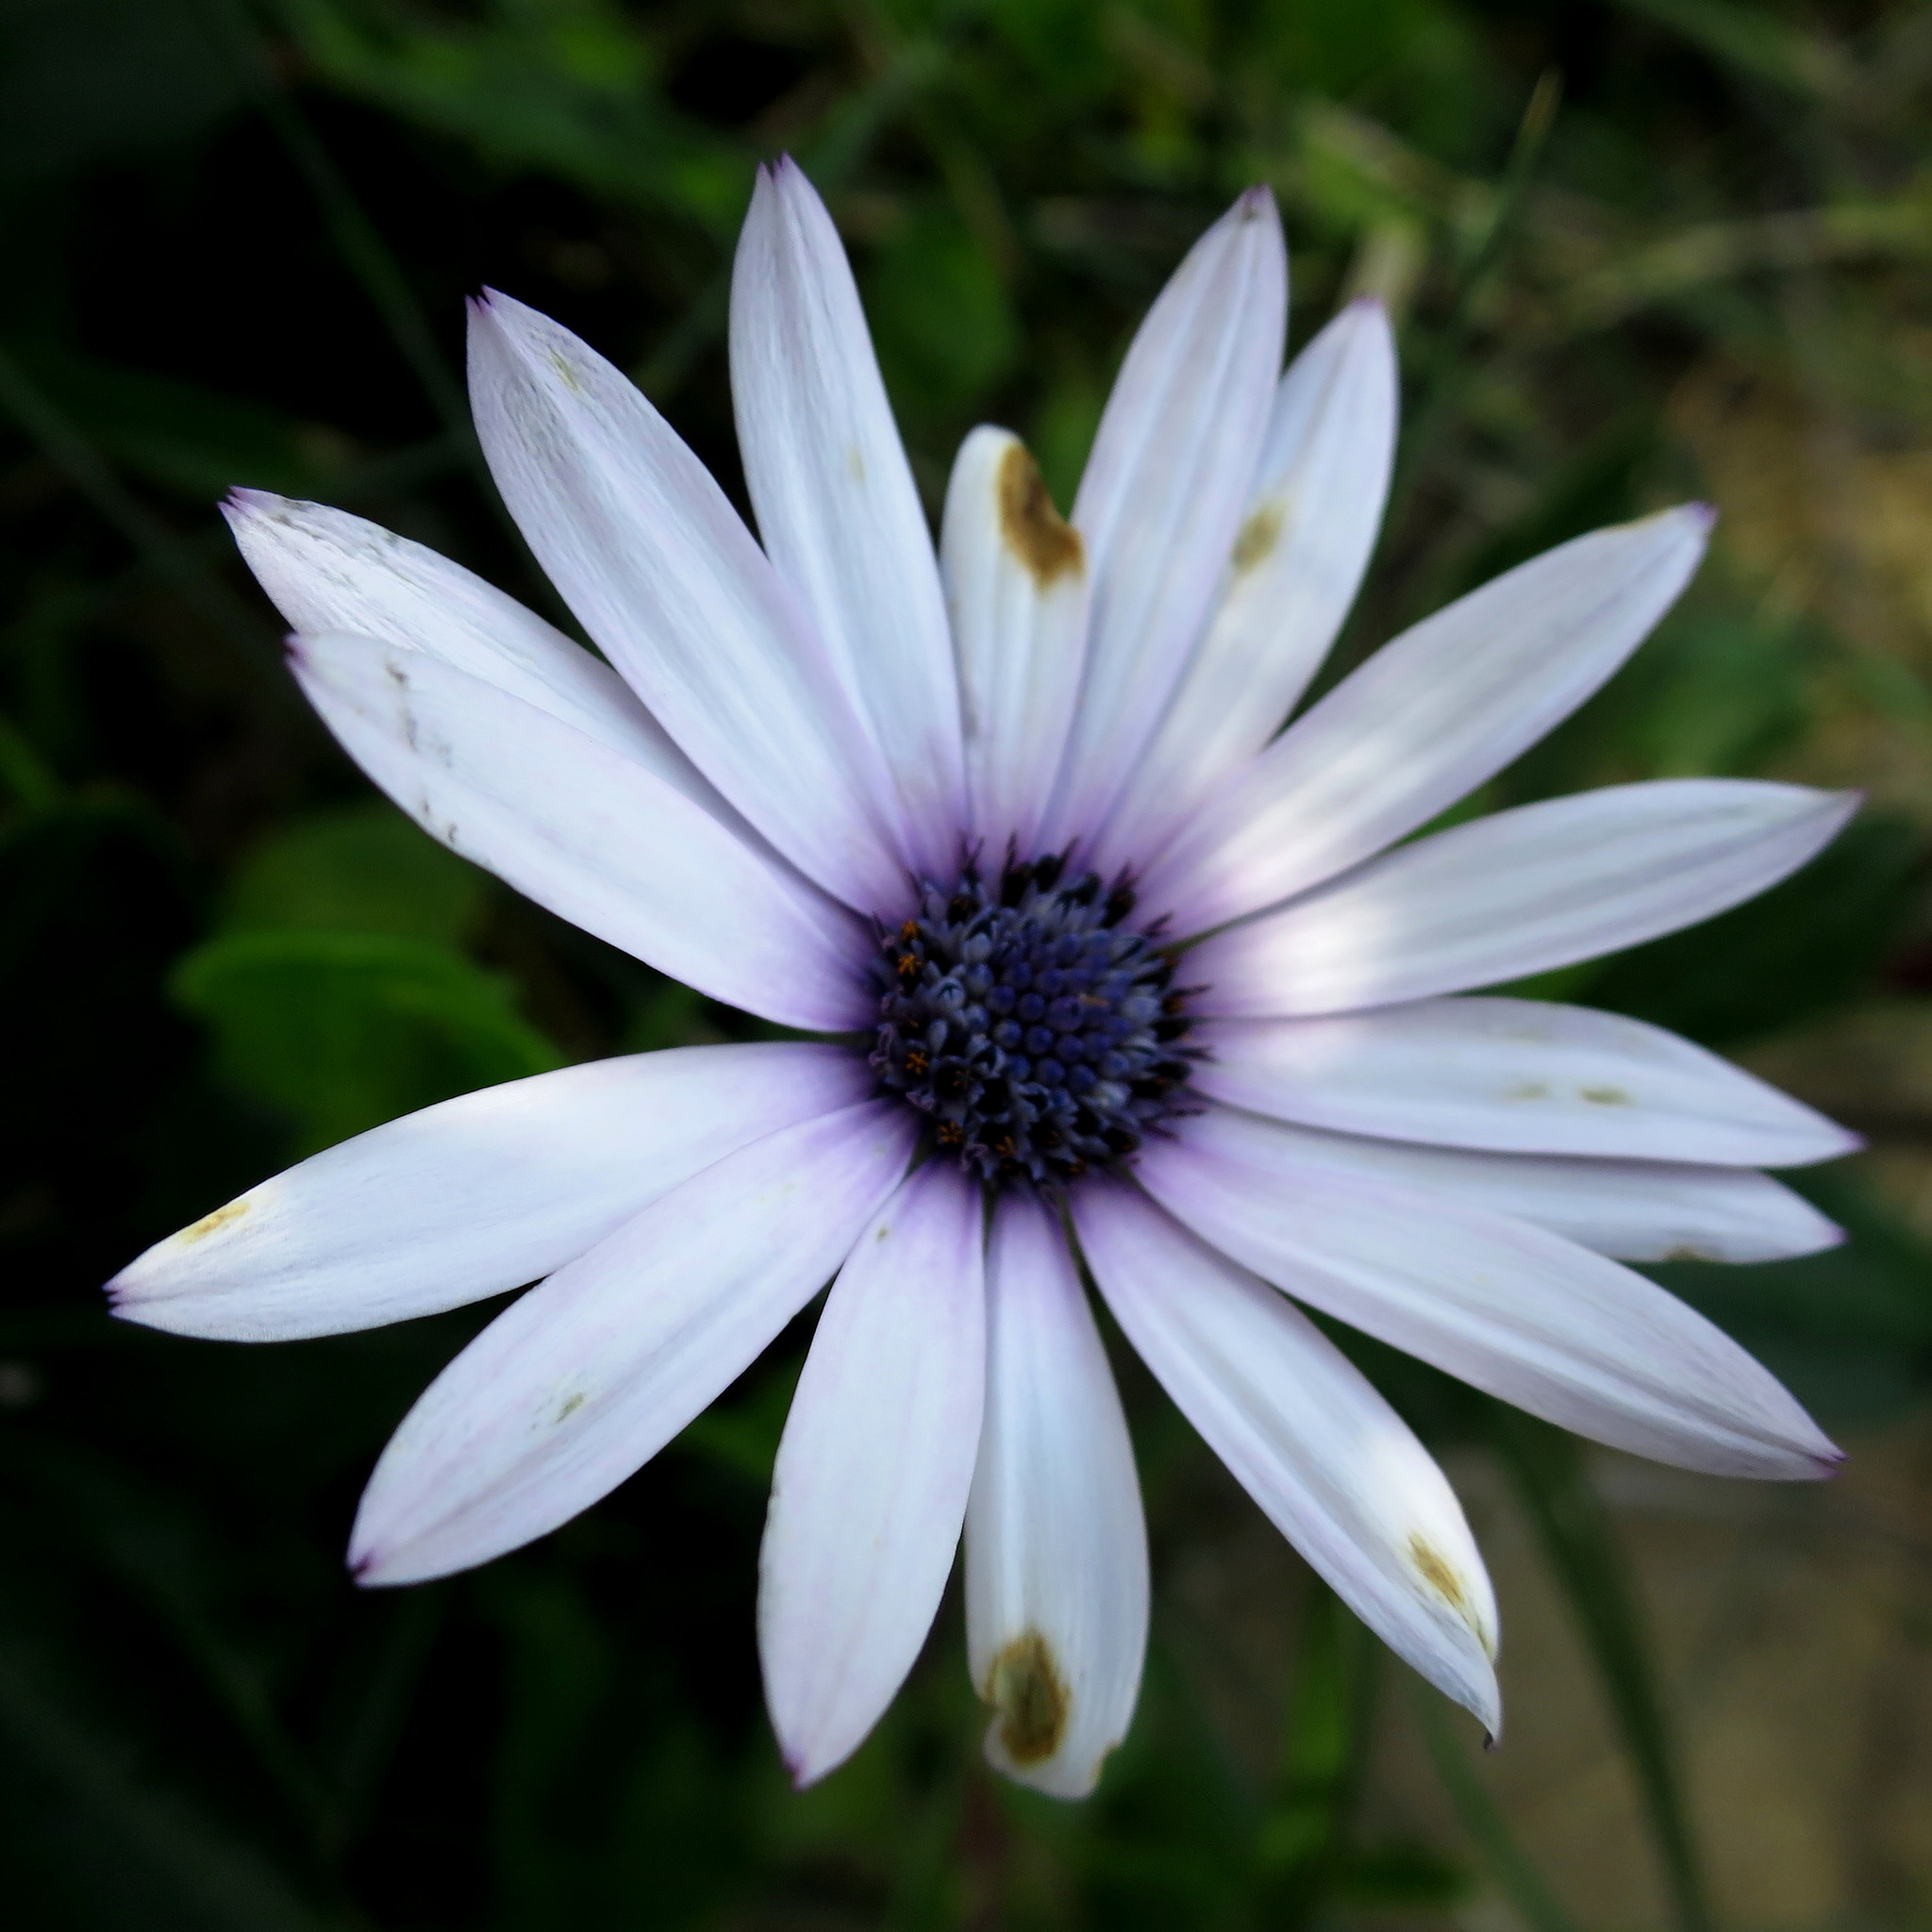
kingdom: Plantae
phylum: Tracheophyta
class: Magnoliopsida
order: Asterales
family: Asteraceae
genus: Dimorphotheca
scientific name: Dimorphotheca fruticosa
